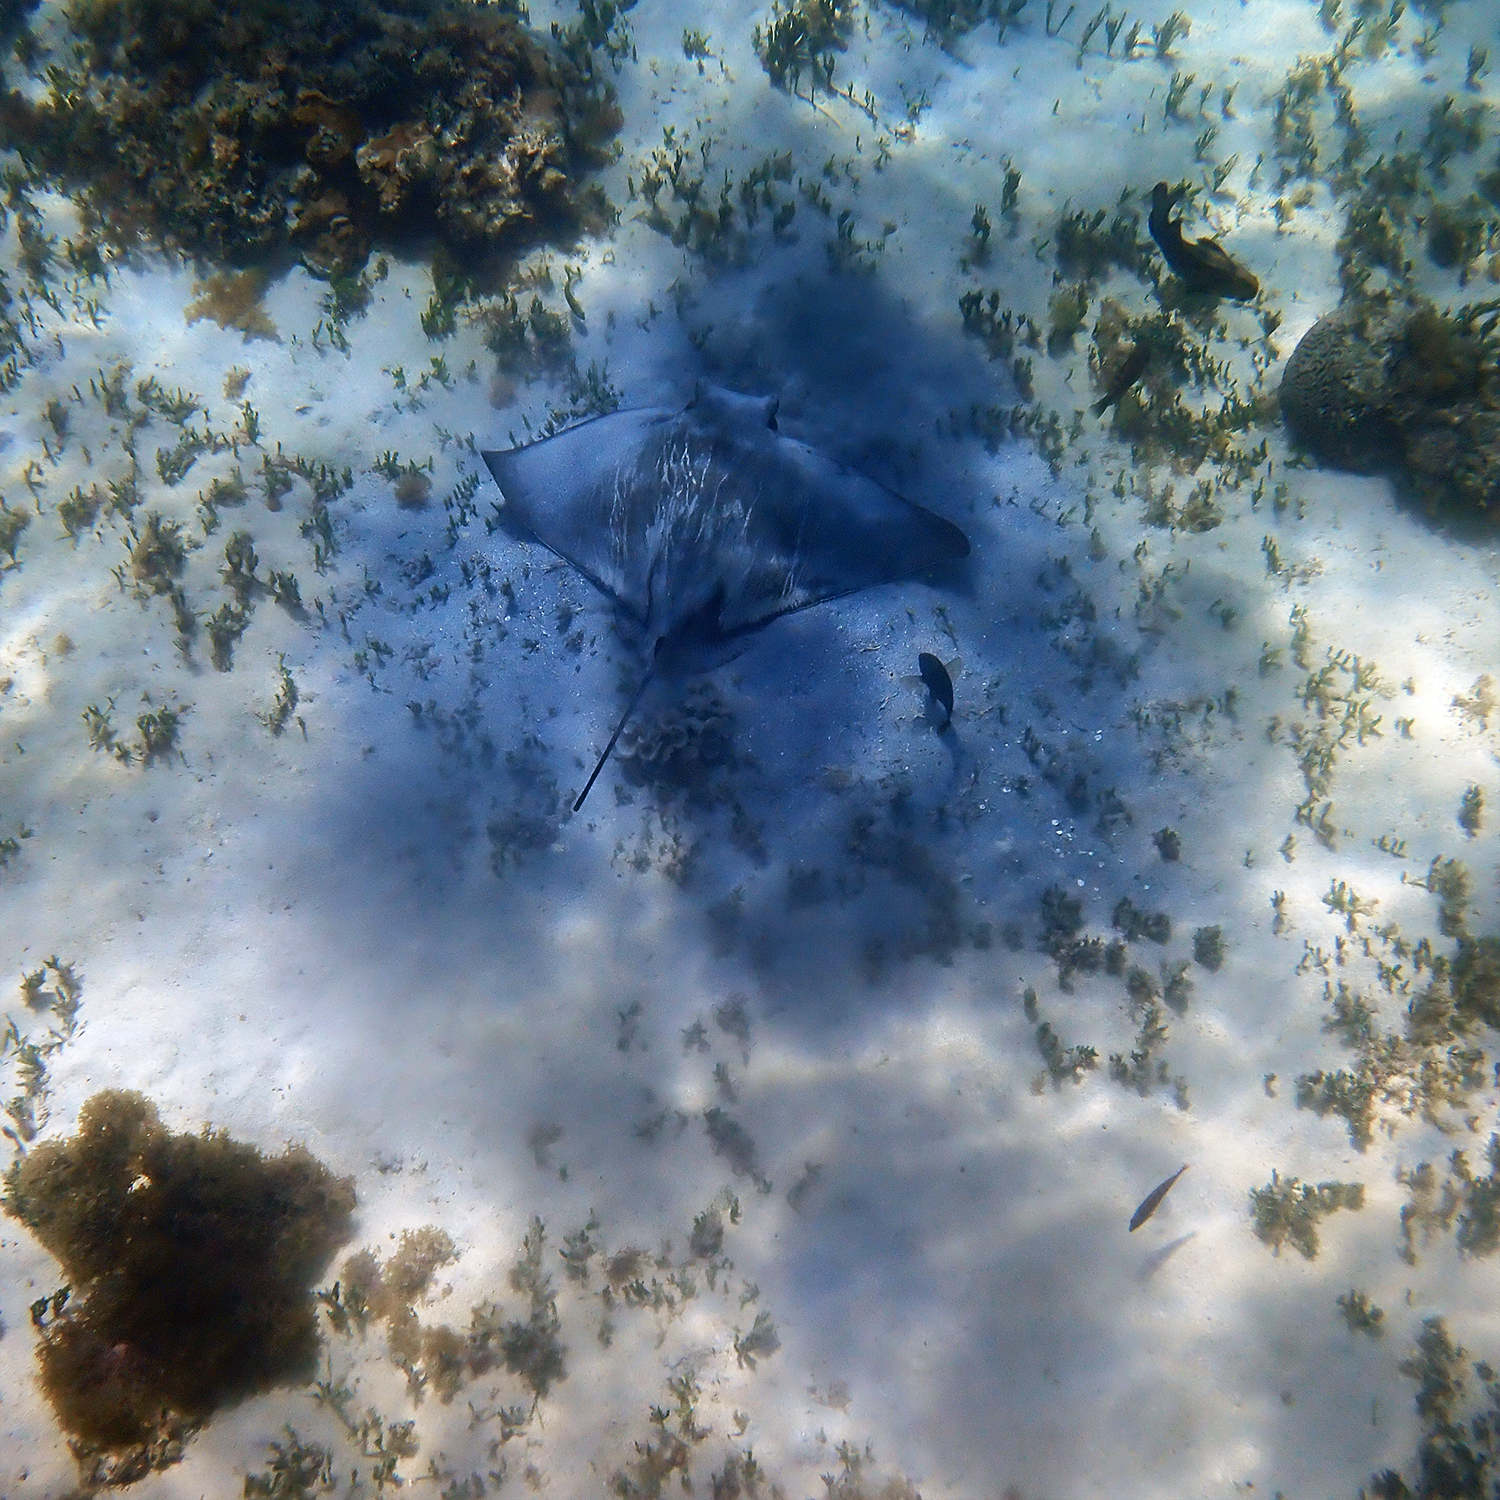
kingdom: Animalia
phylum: Chordata
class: Elasmobranchii
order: Myliobatiformes
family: Myliobatidae
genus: Myliobatis
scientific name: Myliobatis tenuicaudatus
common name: Eagle ray
